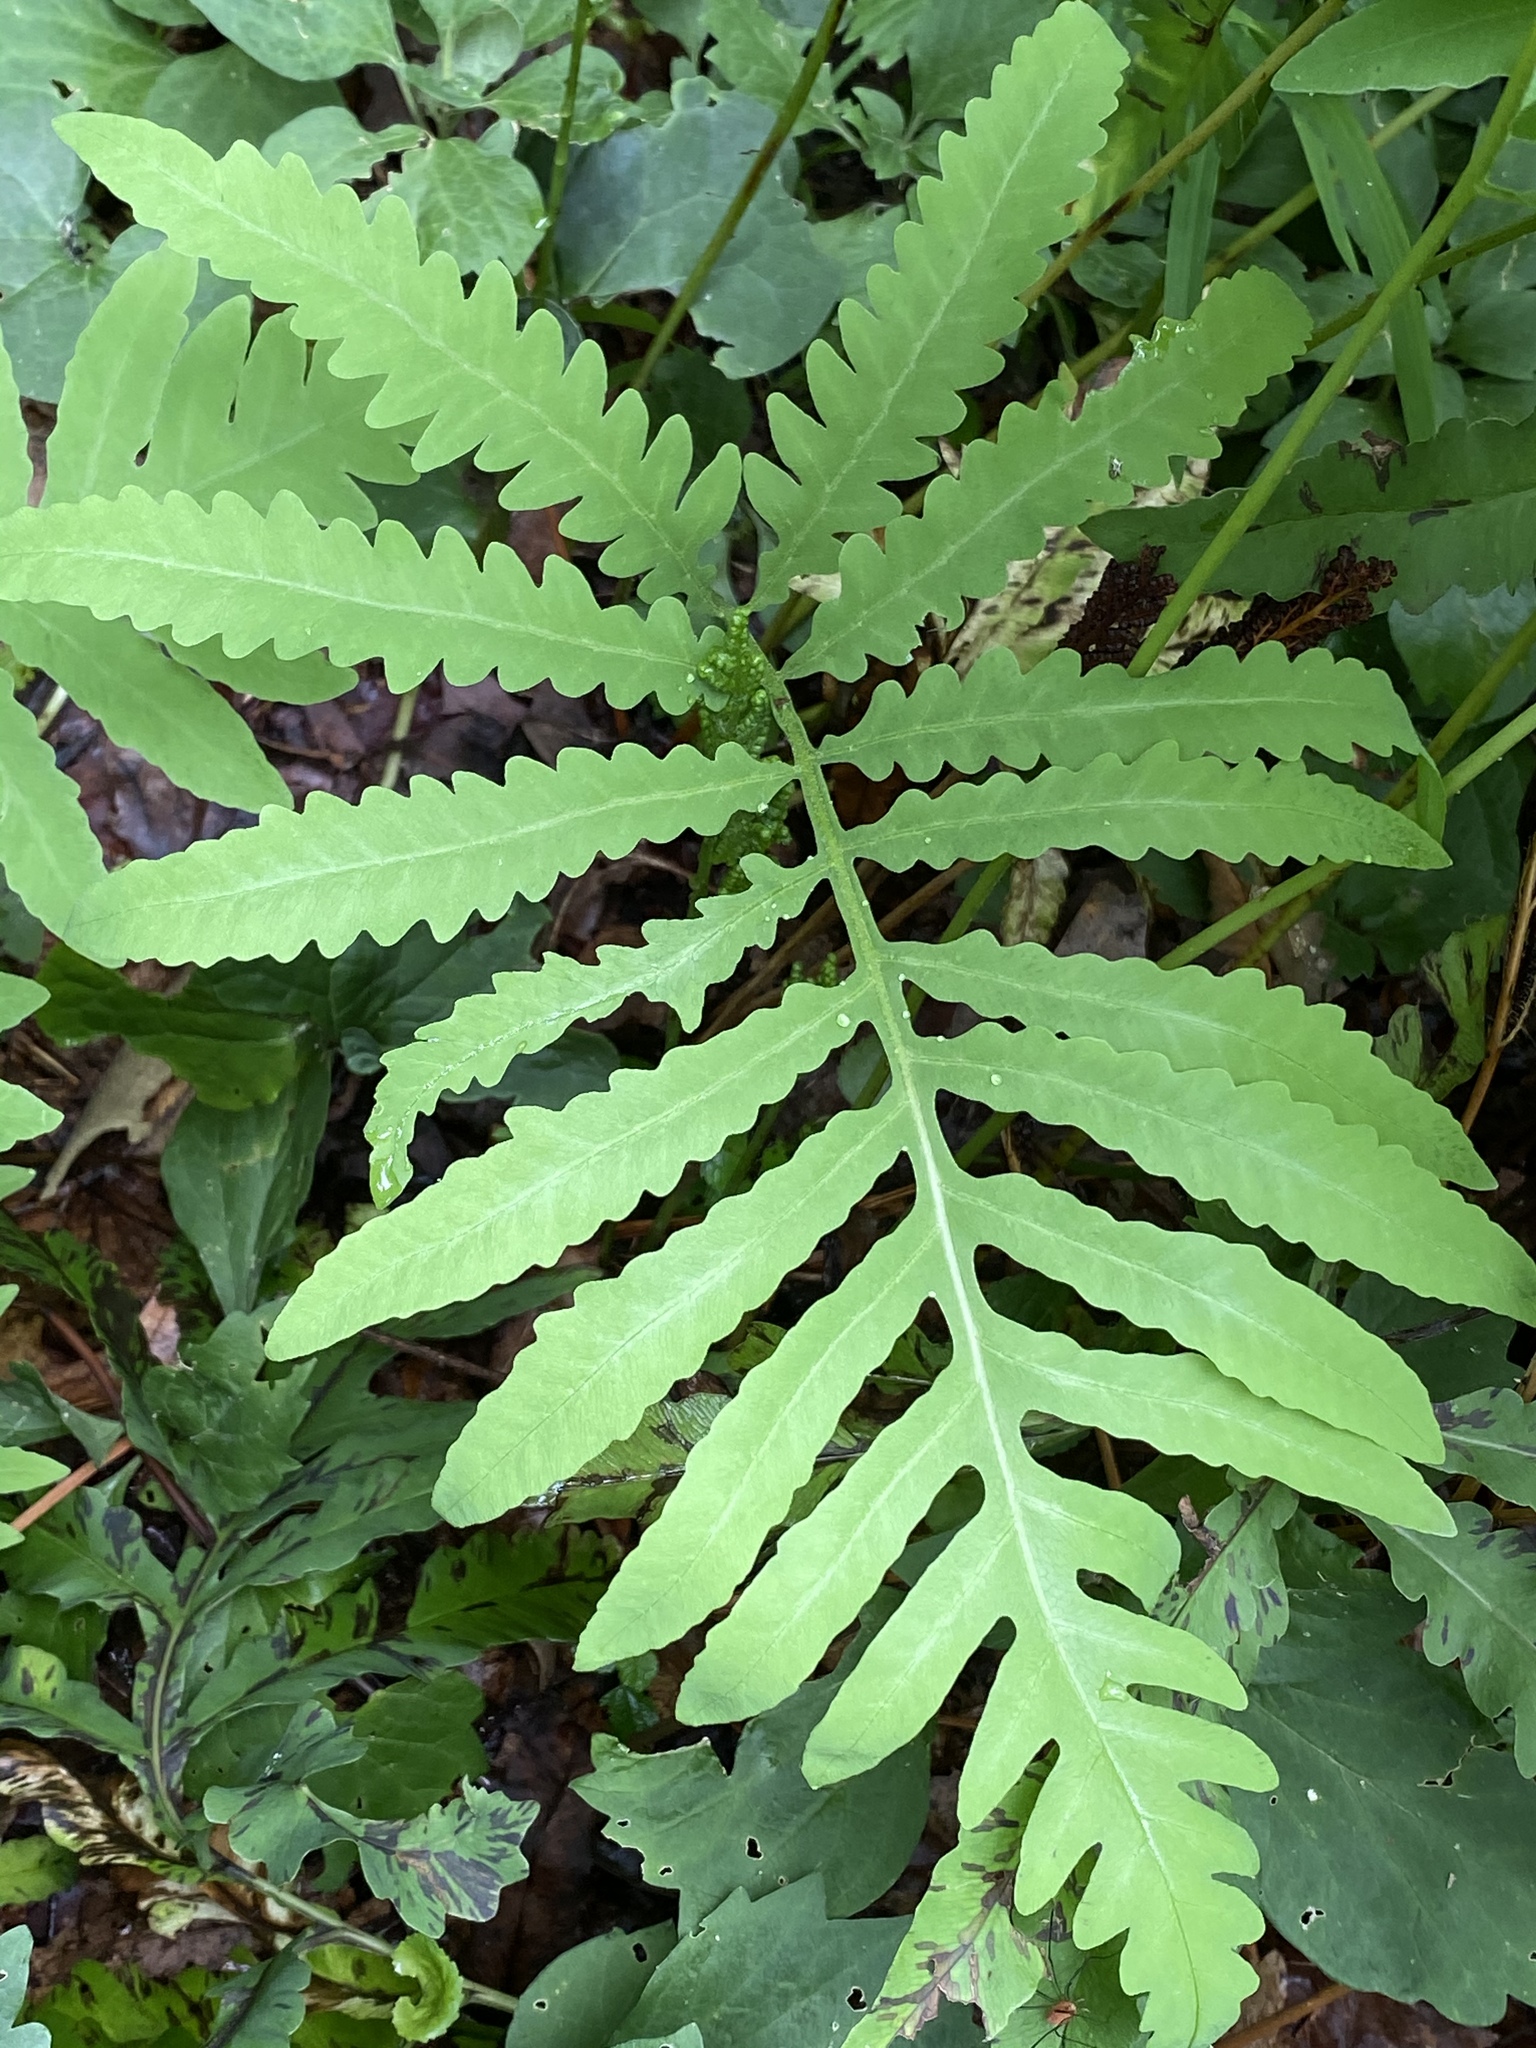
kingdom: Plantae
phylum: Tracheophyta
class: Polypodiopsida
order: Polypodiales
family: Onocleaceae
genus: Onoclea
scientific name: Onoclea sensibilis
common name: Sensitive fern
